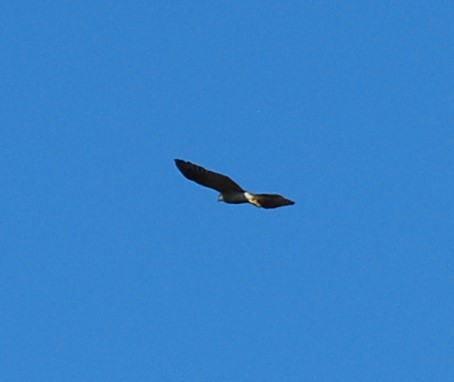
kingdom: Animalia
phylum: Chordata
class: Aves
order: Accipitriformes
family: Accipitridae
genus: Accipiter
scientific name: Accipiter gentilis
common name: Northern goshawk
